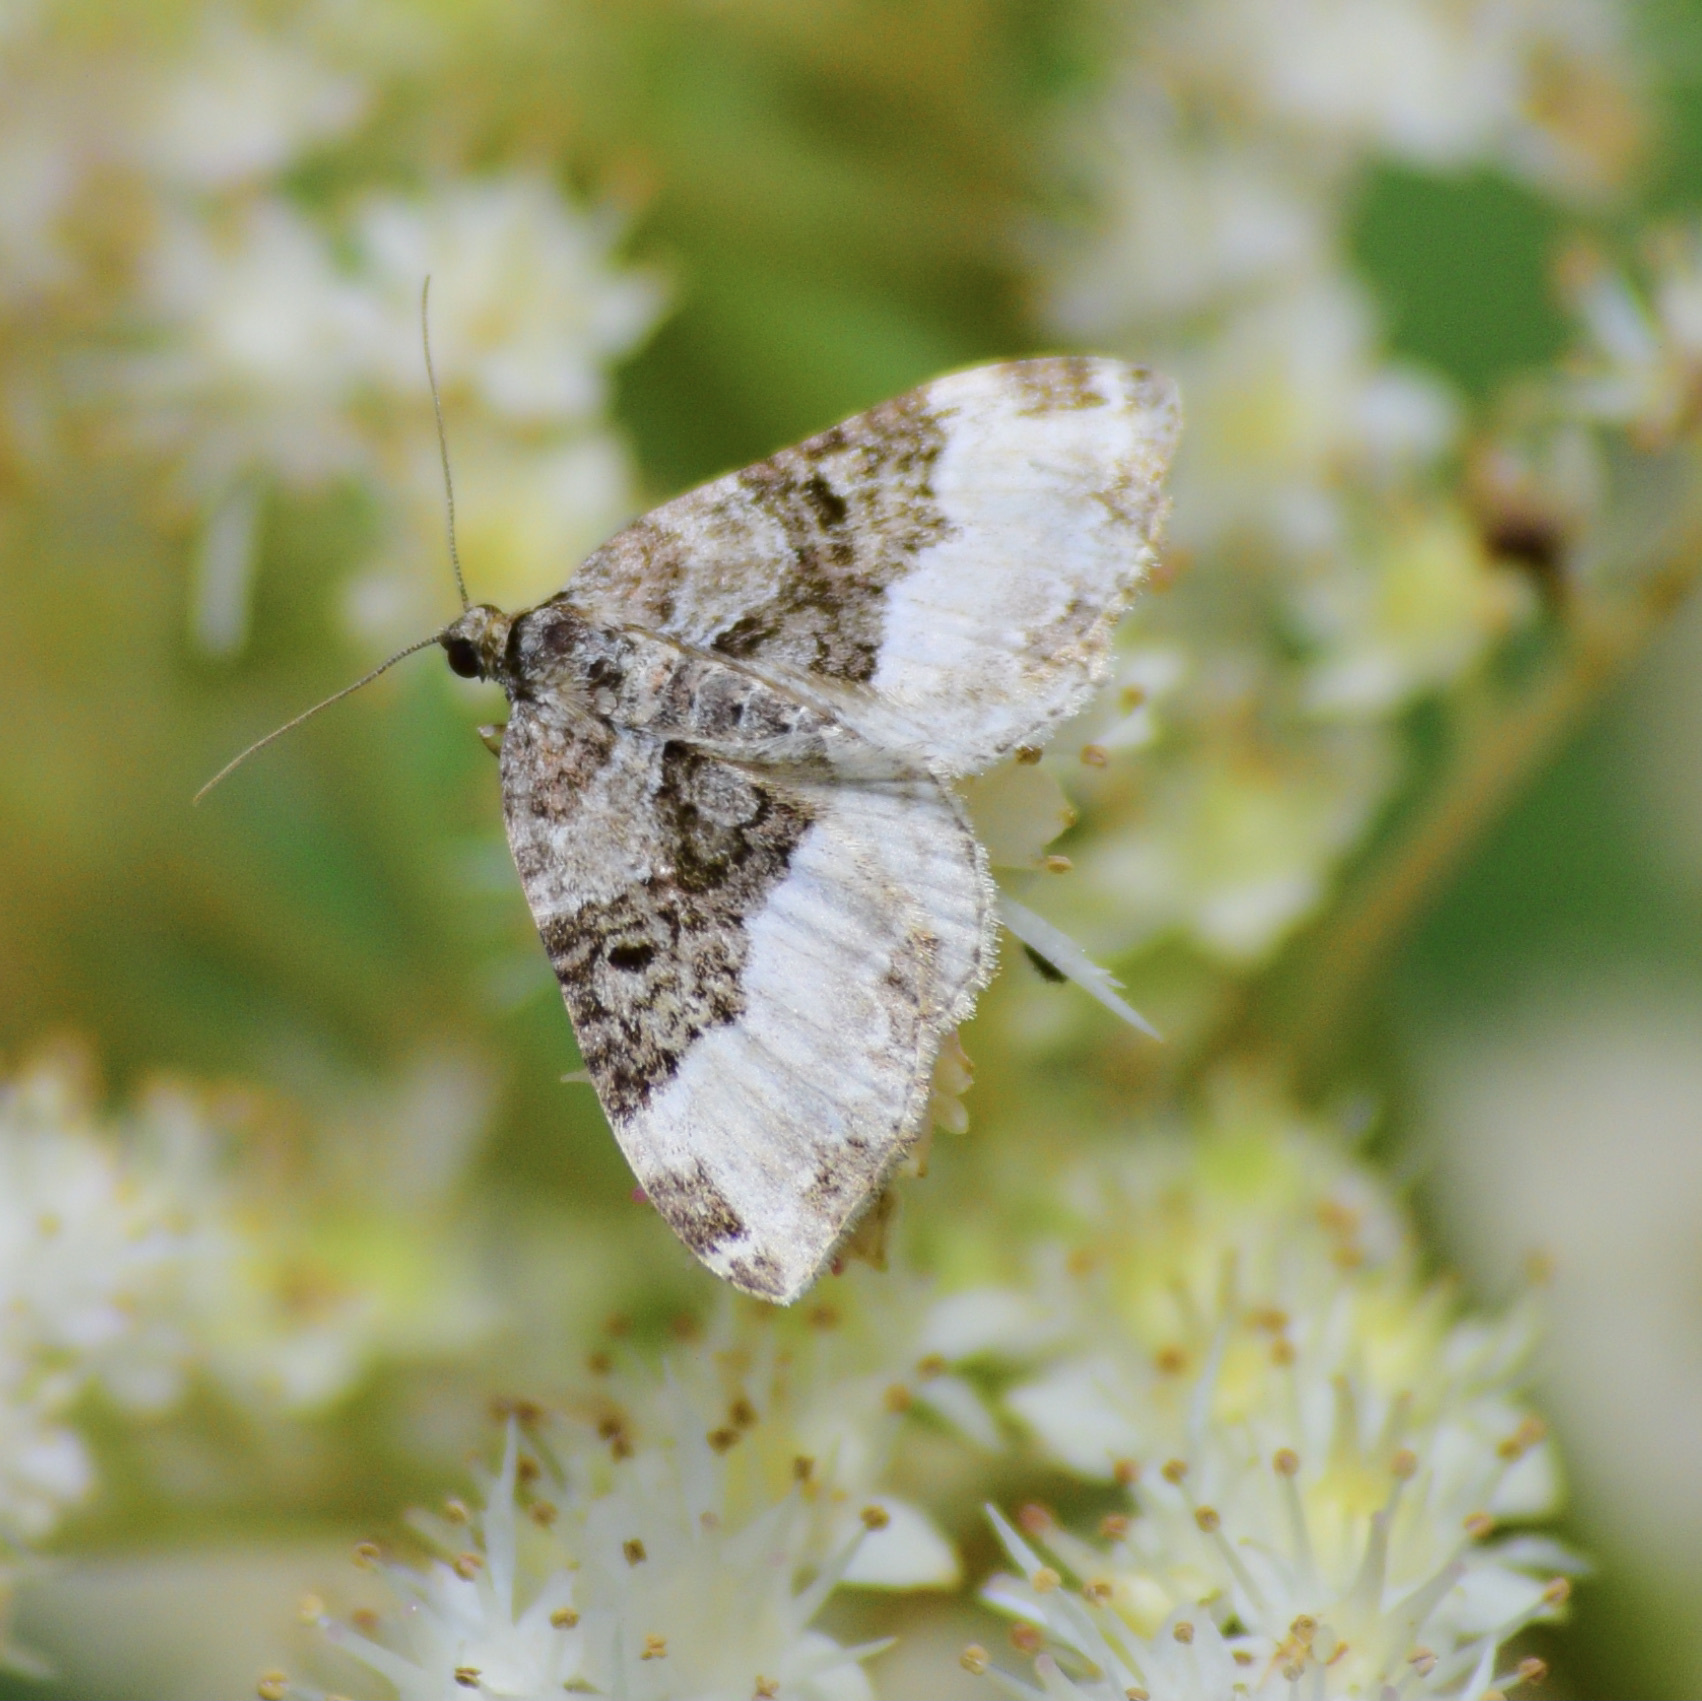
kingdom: Animalia
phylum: Arthropoda
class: Insecta
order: Lepidoptera
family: Geometridae
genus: Euphyia
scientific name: Euphyia intermediata
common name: Sharp-angled carpet
